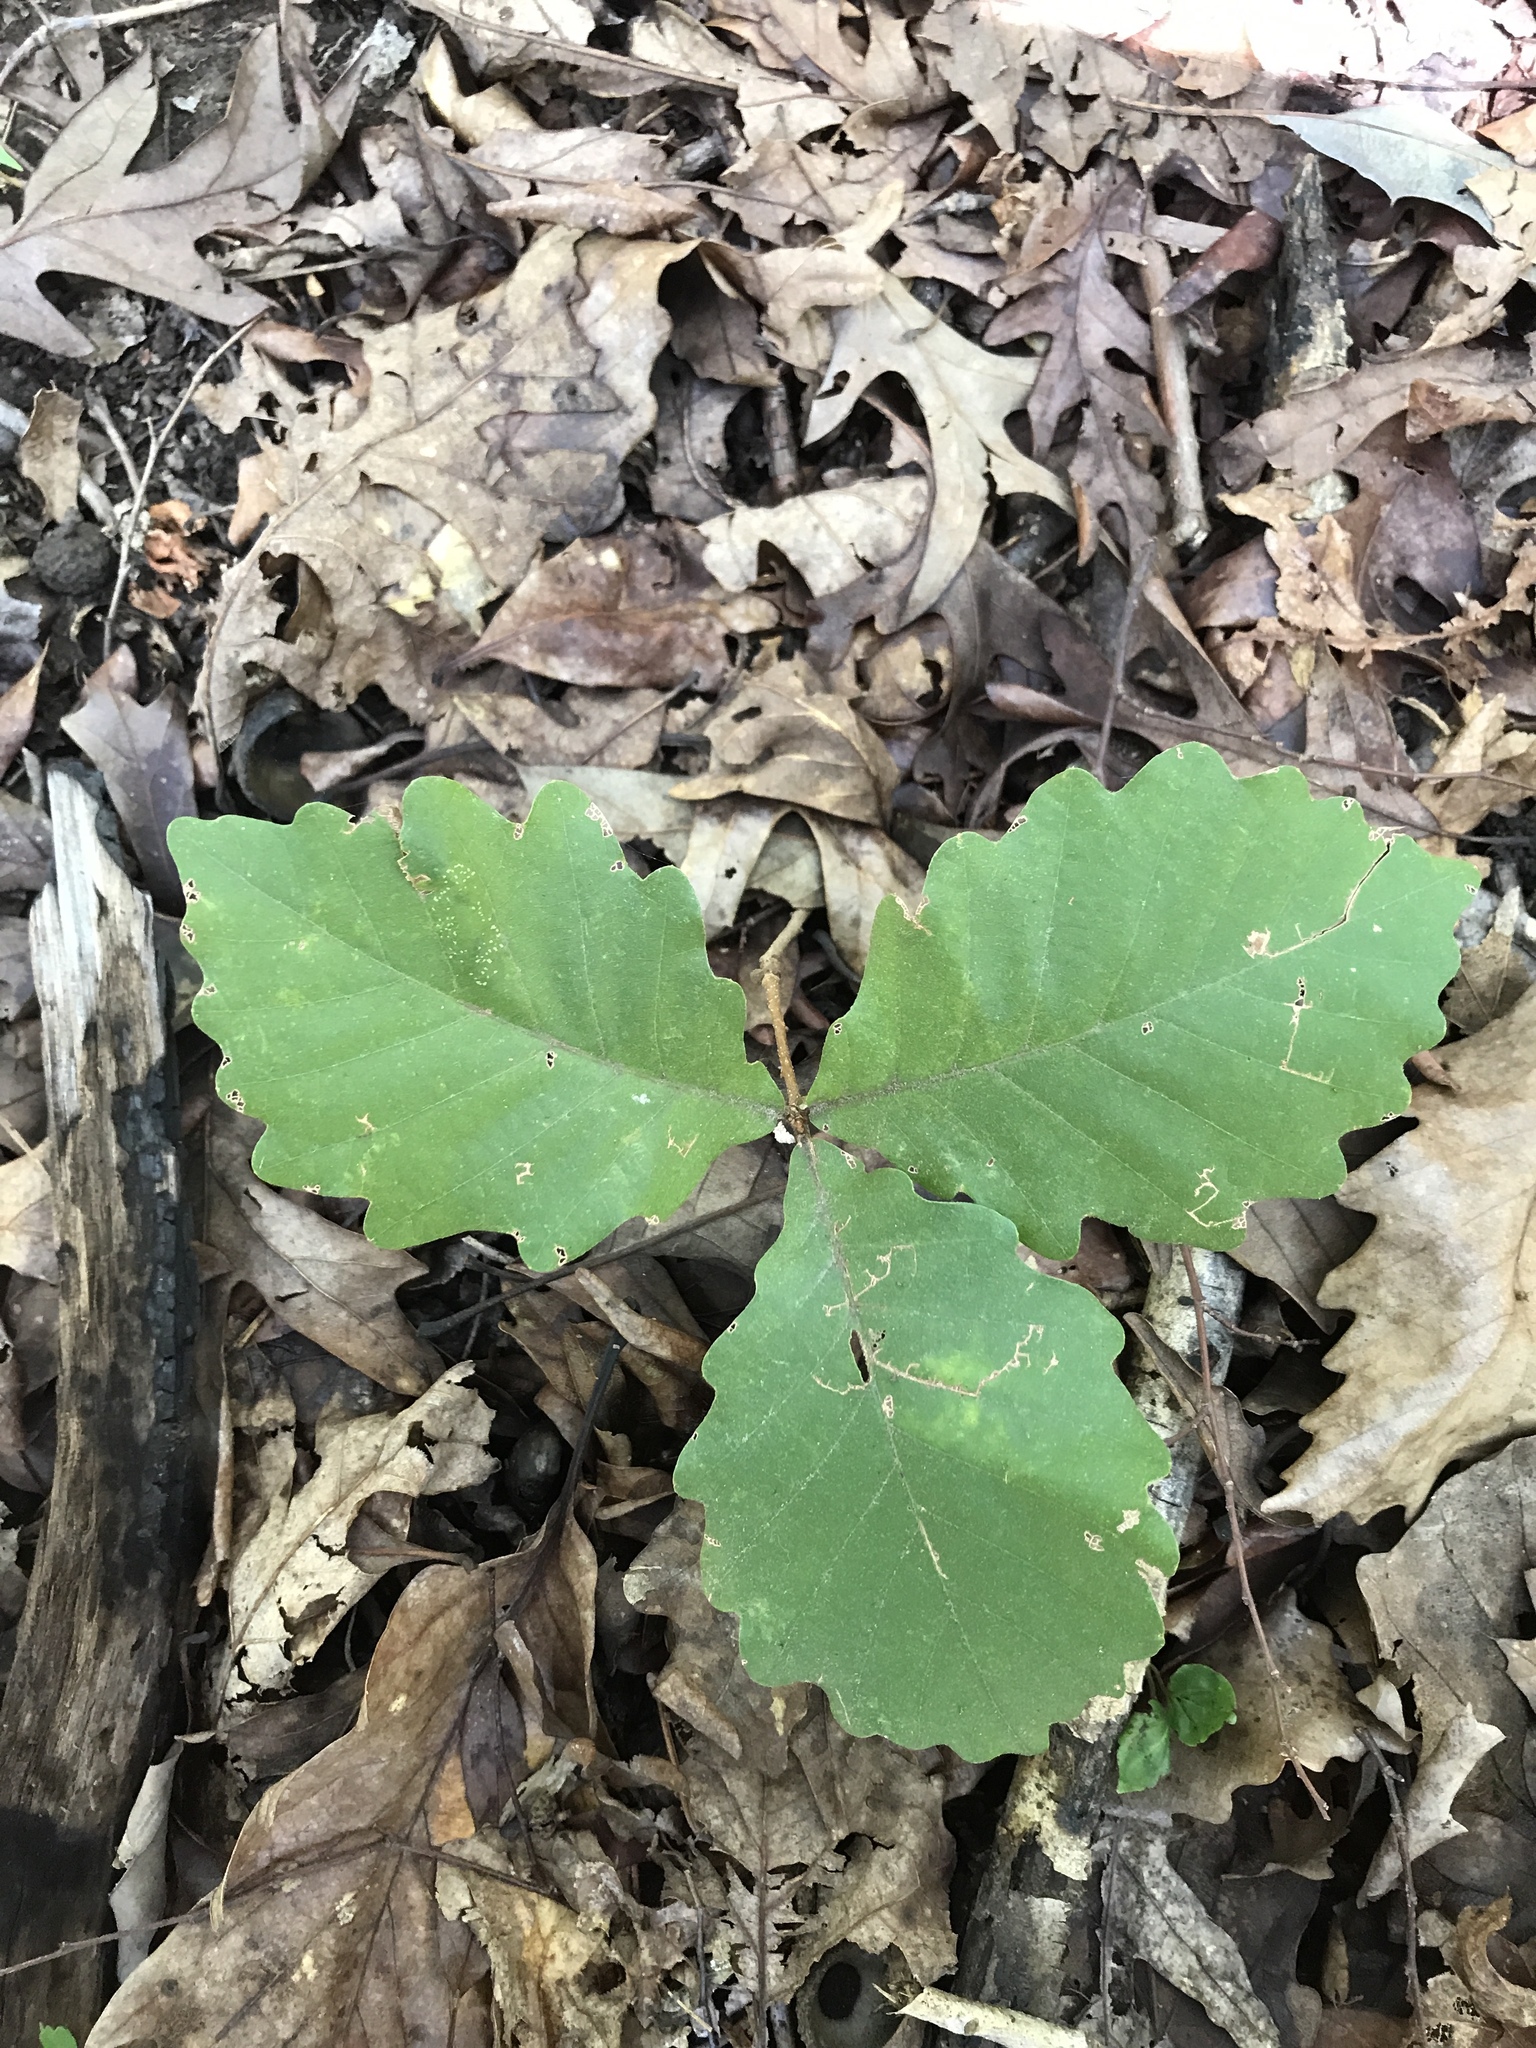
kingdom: Plantae
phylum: Tracheophyta
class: Magnoliopsida
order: Fagales
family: Fagaceae
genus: Quercus
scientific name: Quercus montana
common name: Chestnut oak
